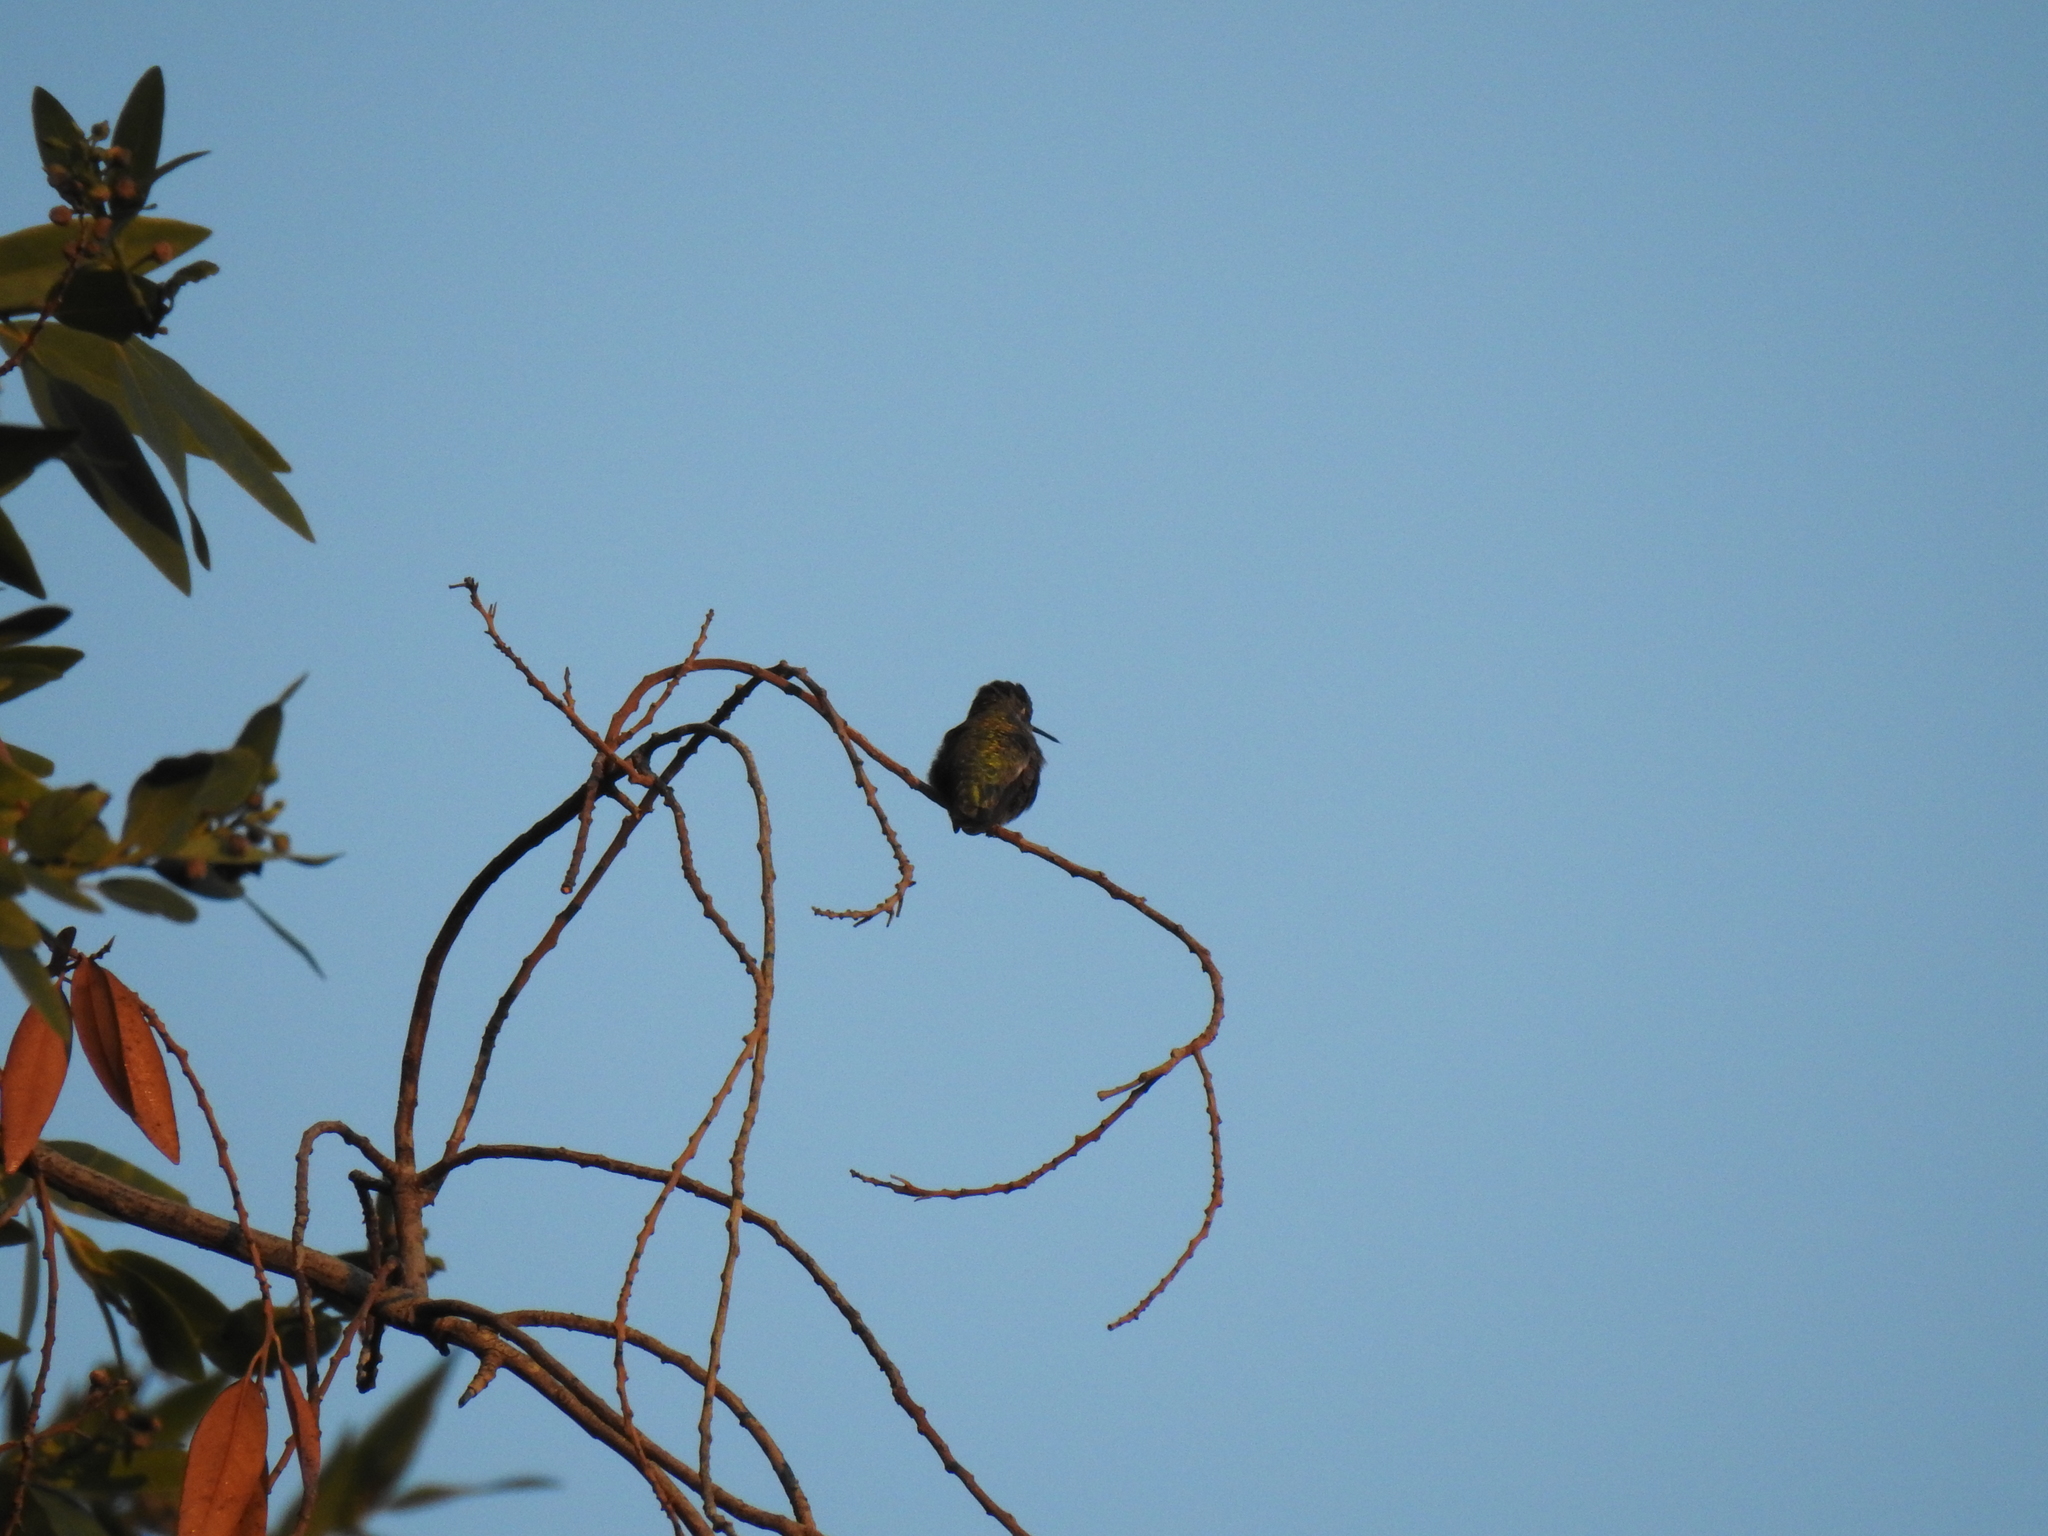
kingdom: Animalia
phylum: Chordata
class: Aves
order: Apodiformes
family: Trochilidae
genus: Calypte
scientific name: Calypte anna
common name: Anna's hummingbird
